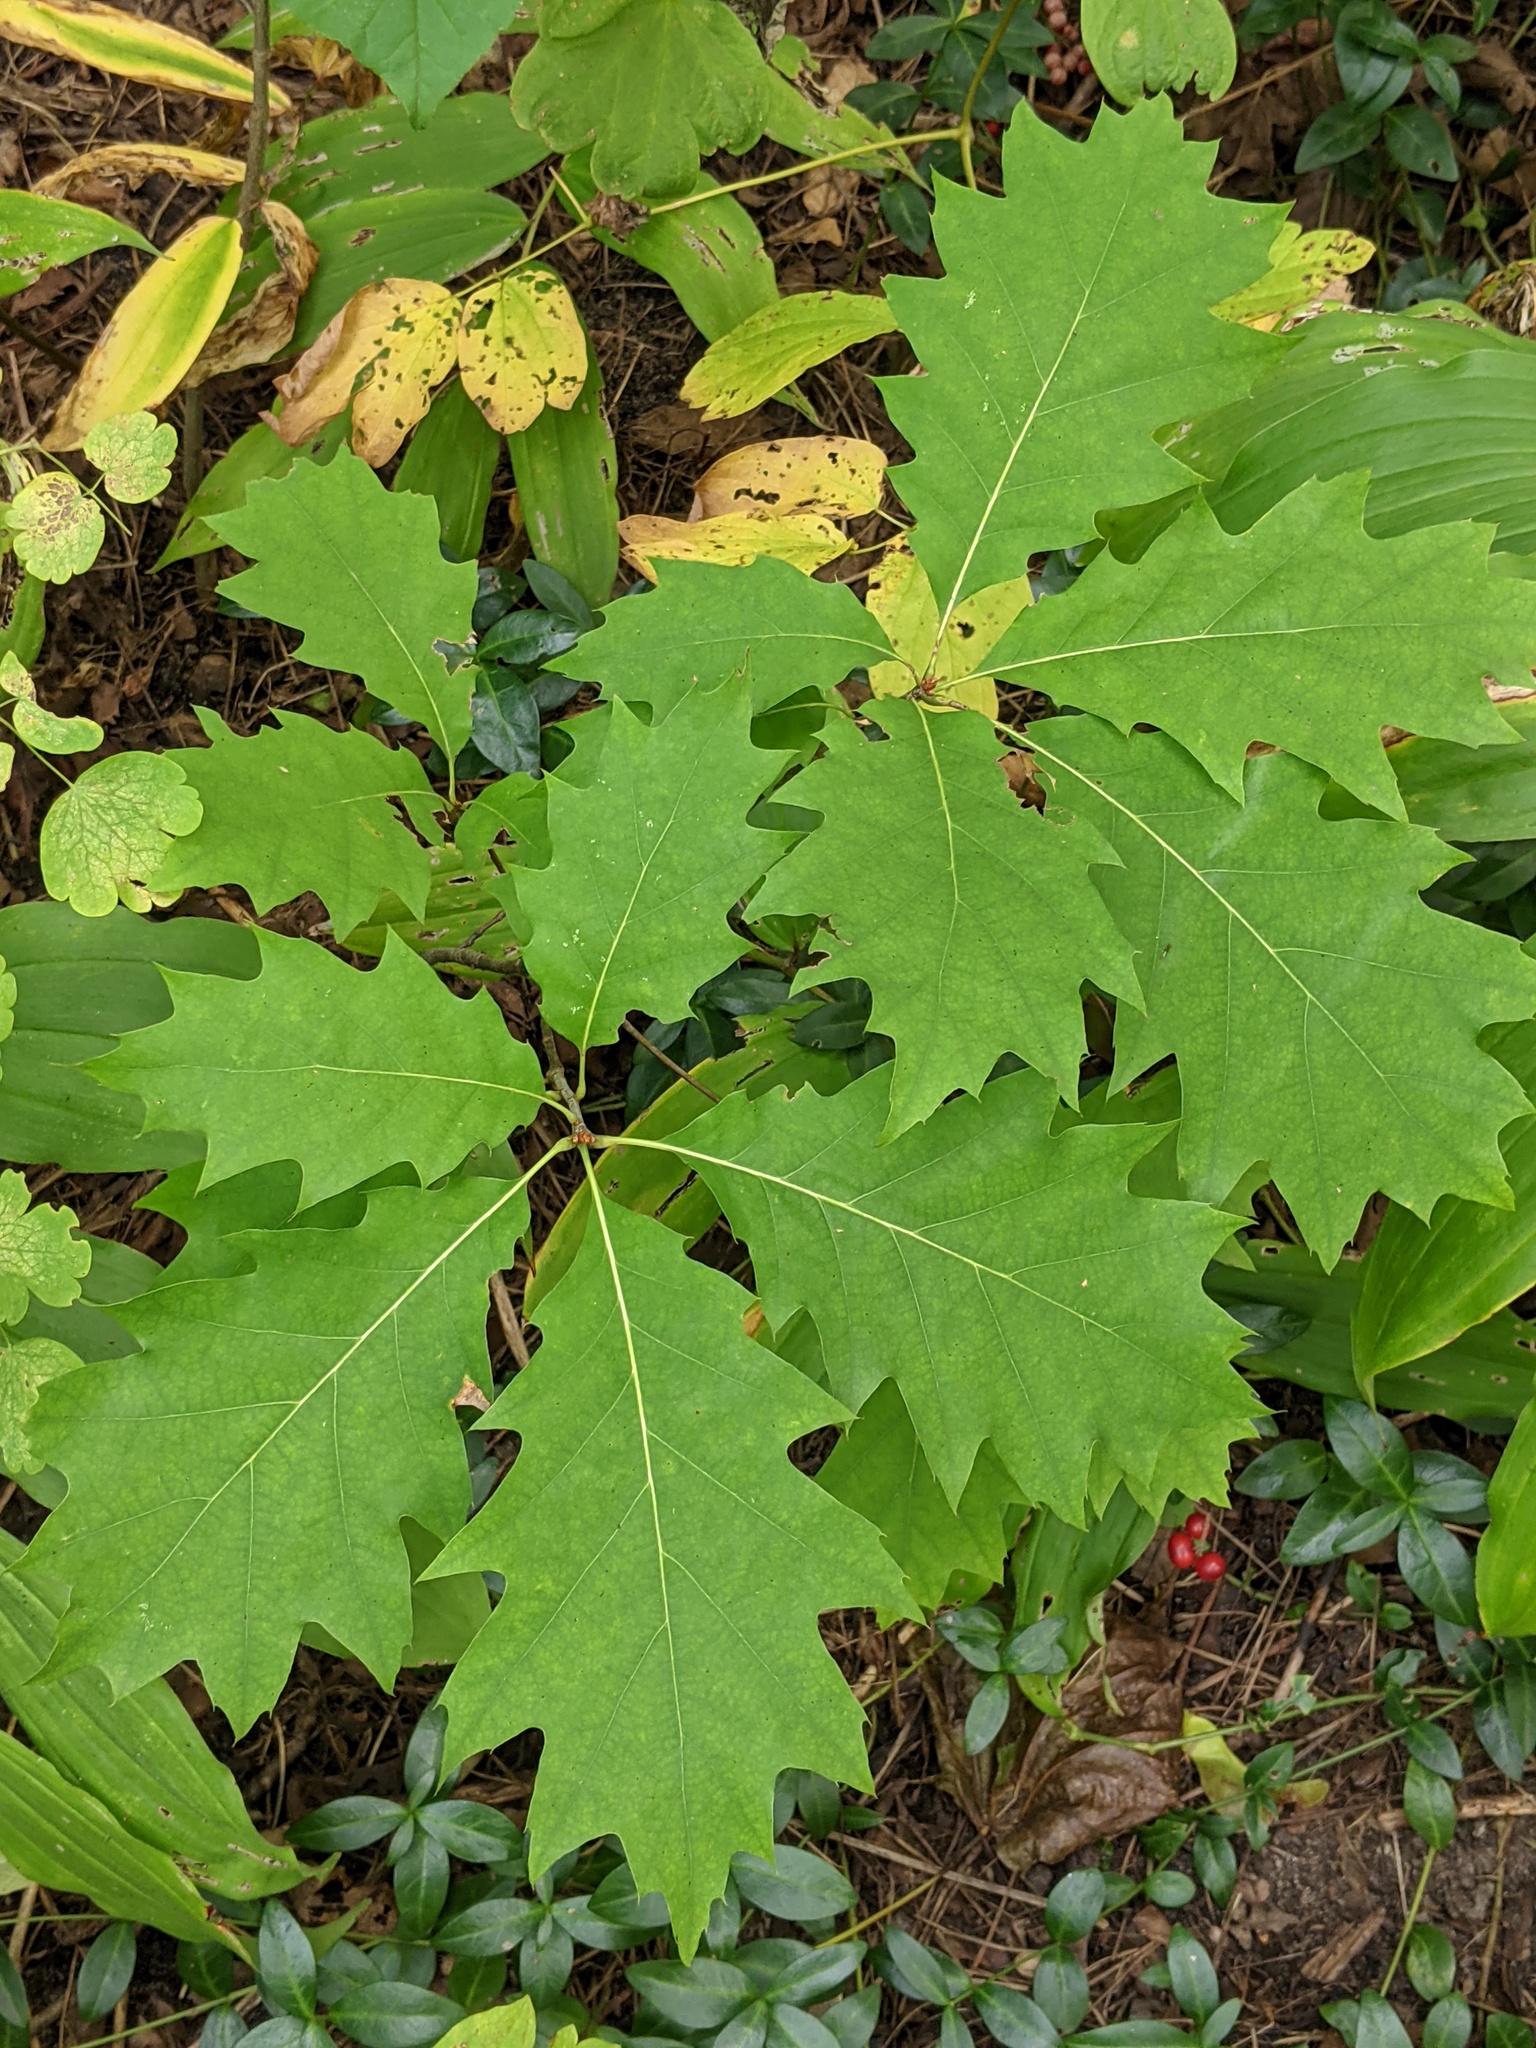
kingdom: Plantae
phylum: Tracheophyta
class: Magnoliopsida
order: Fagales
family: Fagaceae
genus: Quercus
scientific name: Quercus rubra
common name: Red oak
